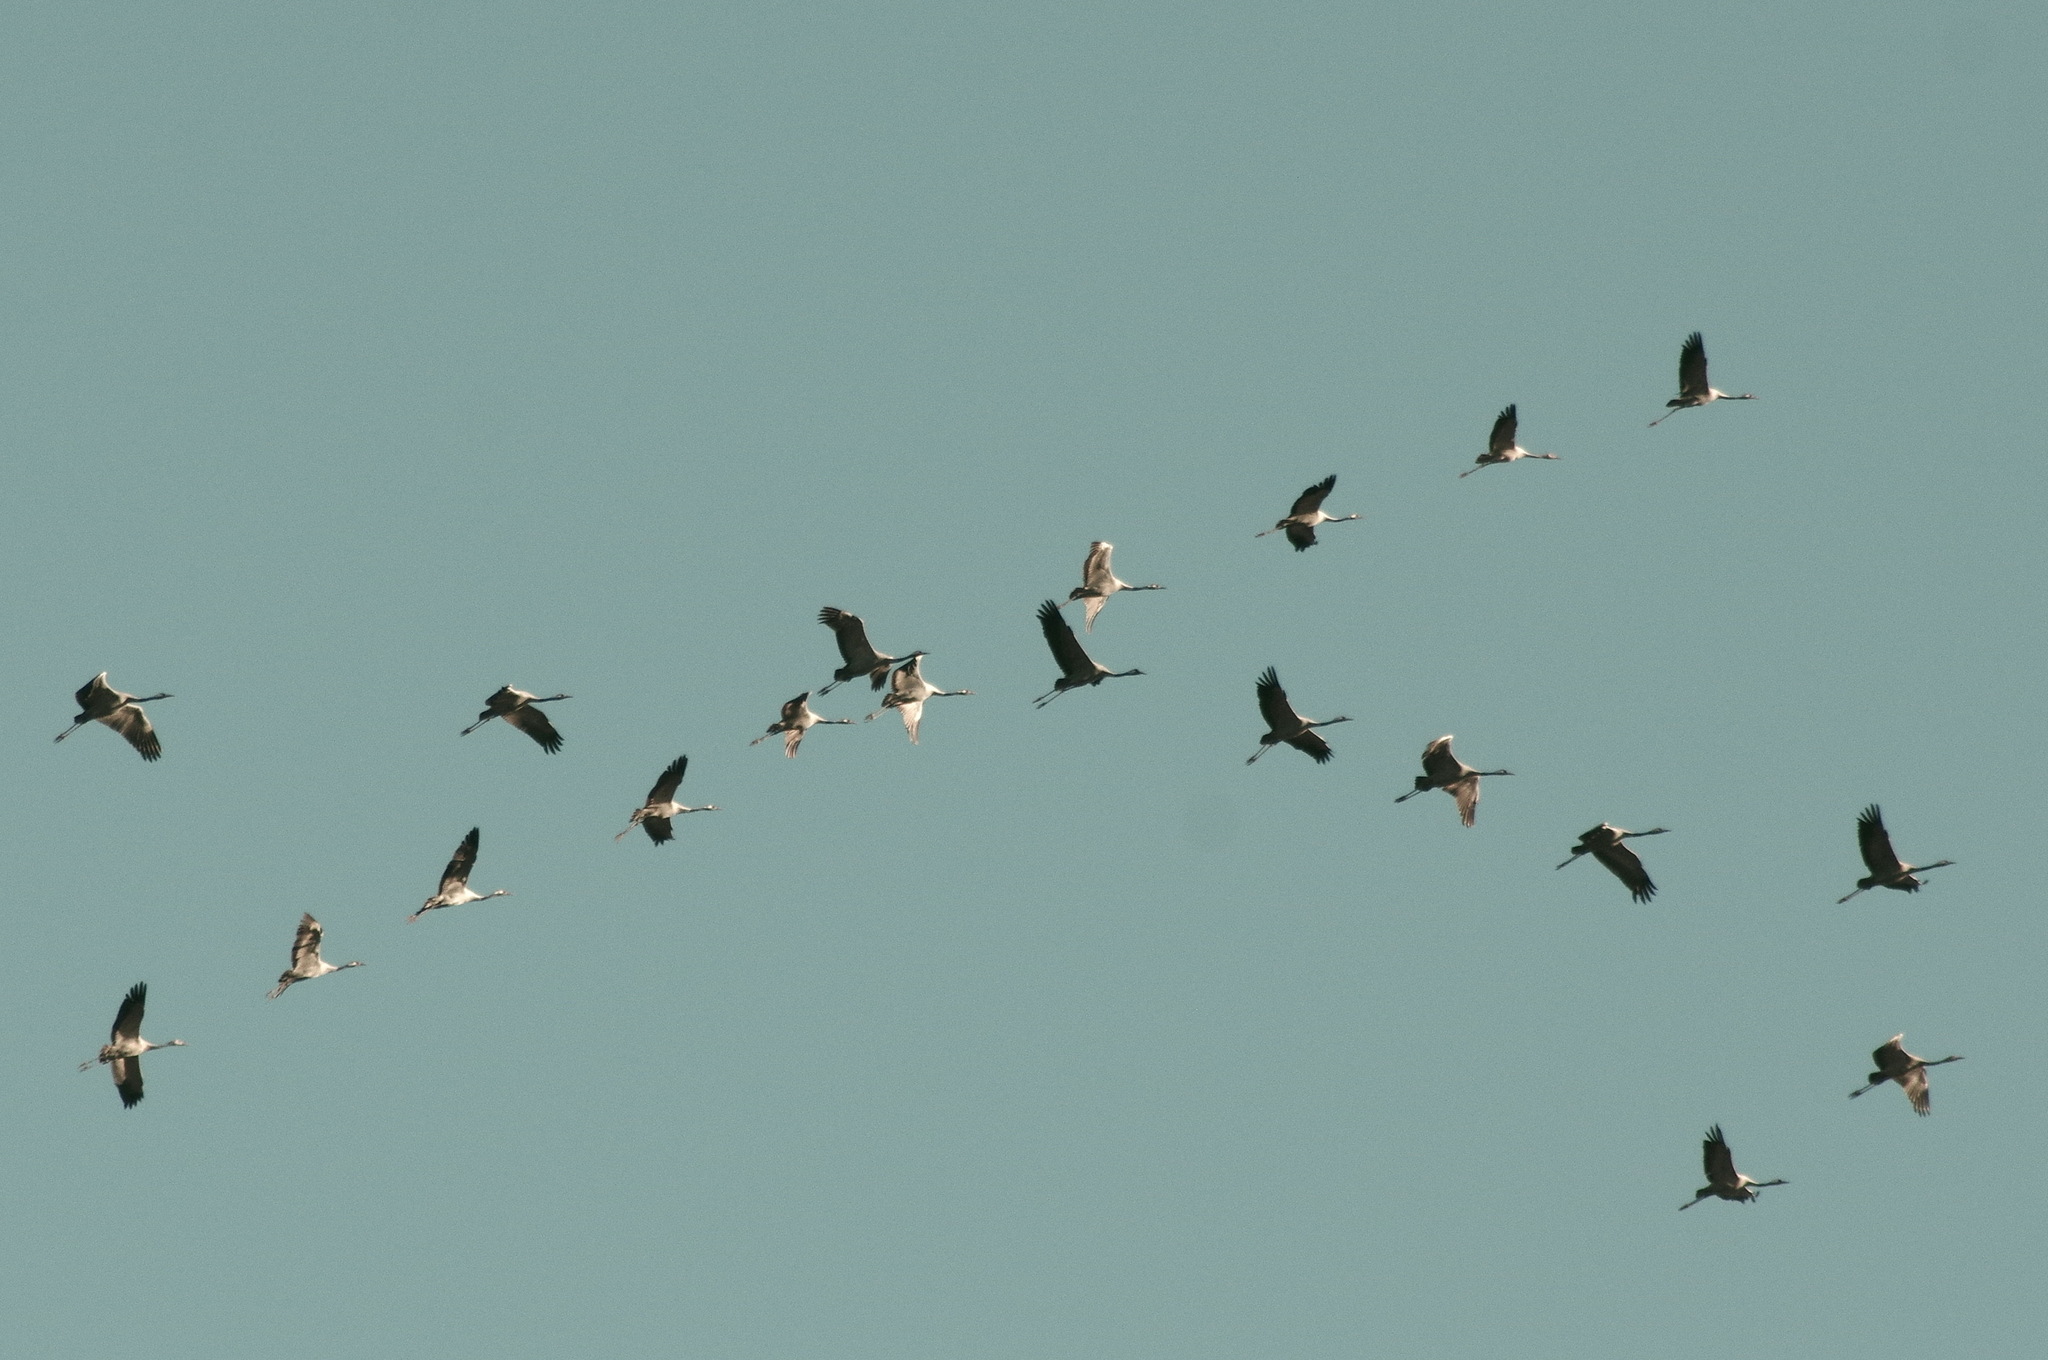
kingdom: Animalia
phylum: Chordata
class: Aves
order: Gruiformes
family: Gruidae
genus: Grus
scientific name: Grus grus
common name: Common crane
